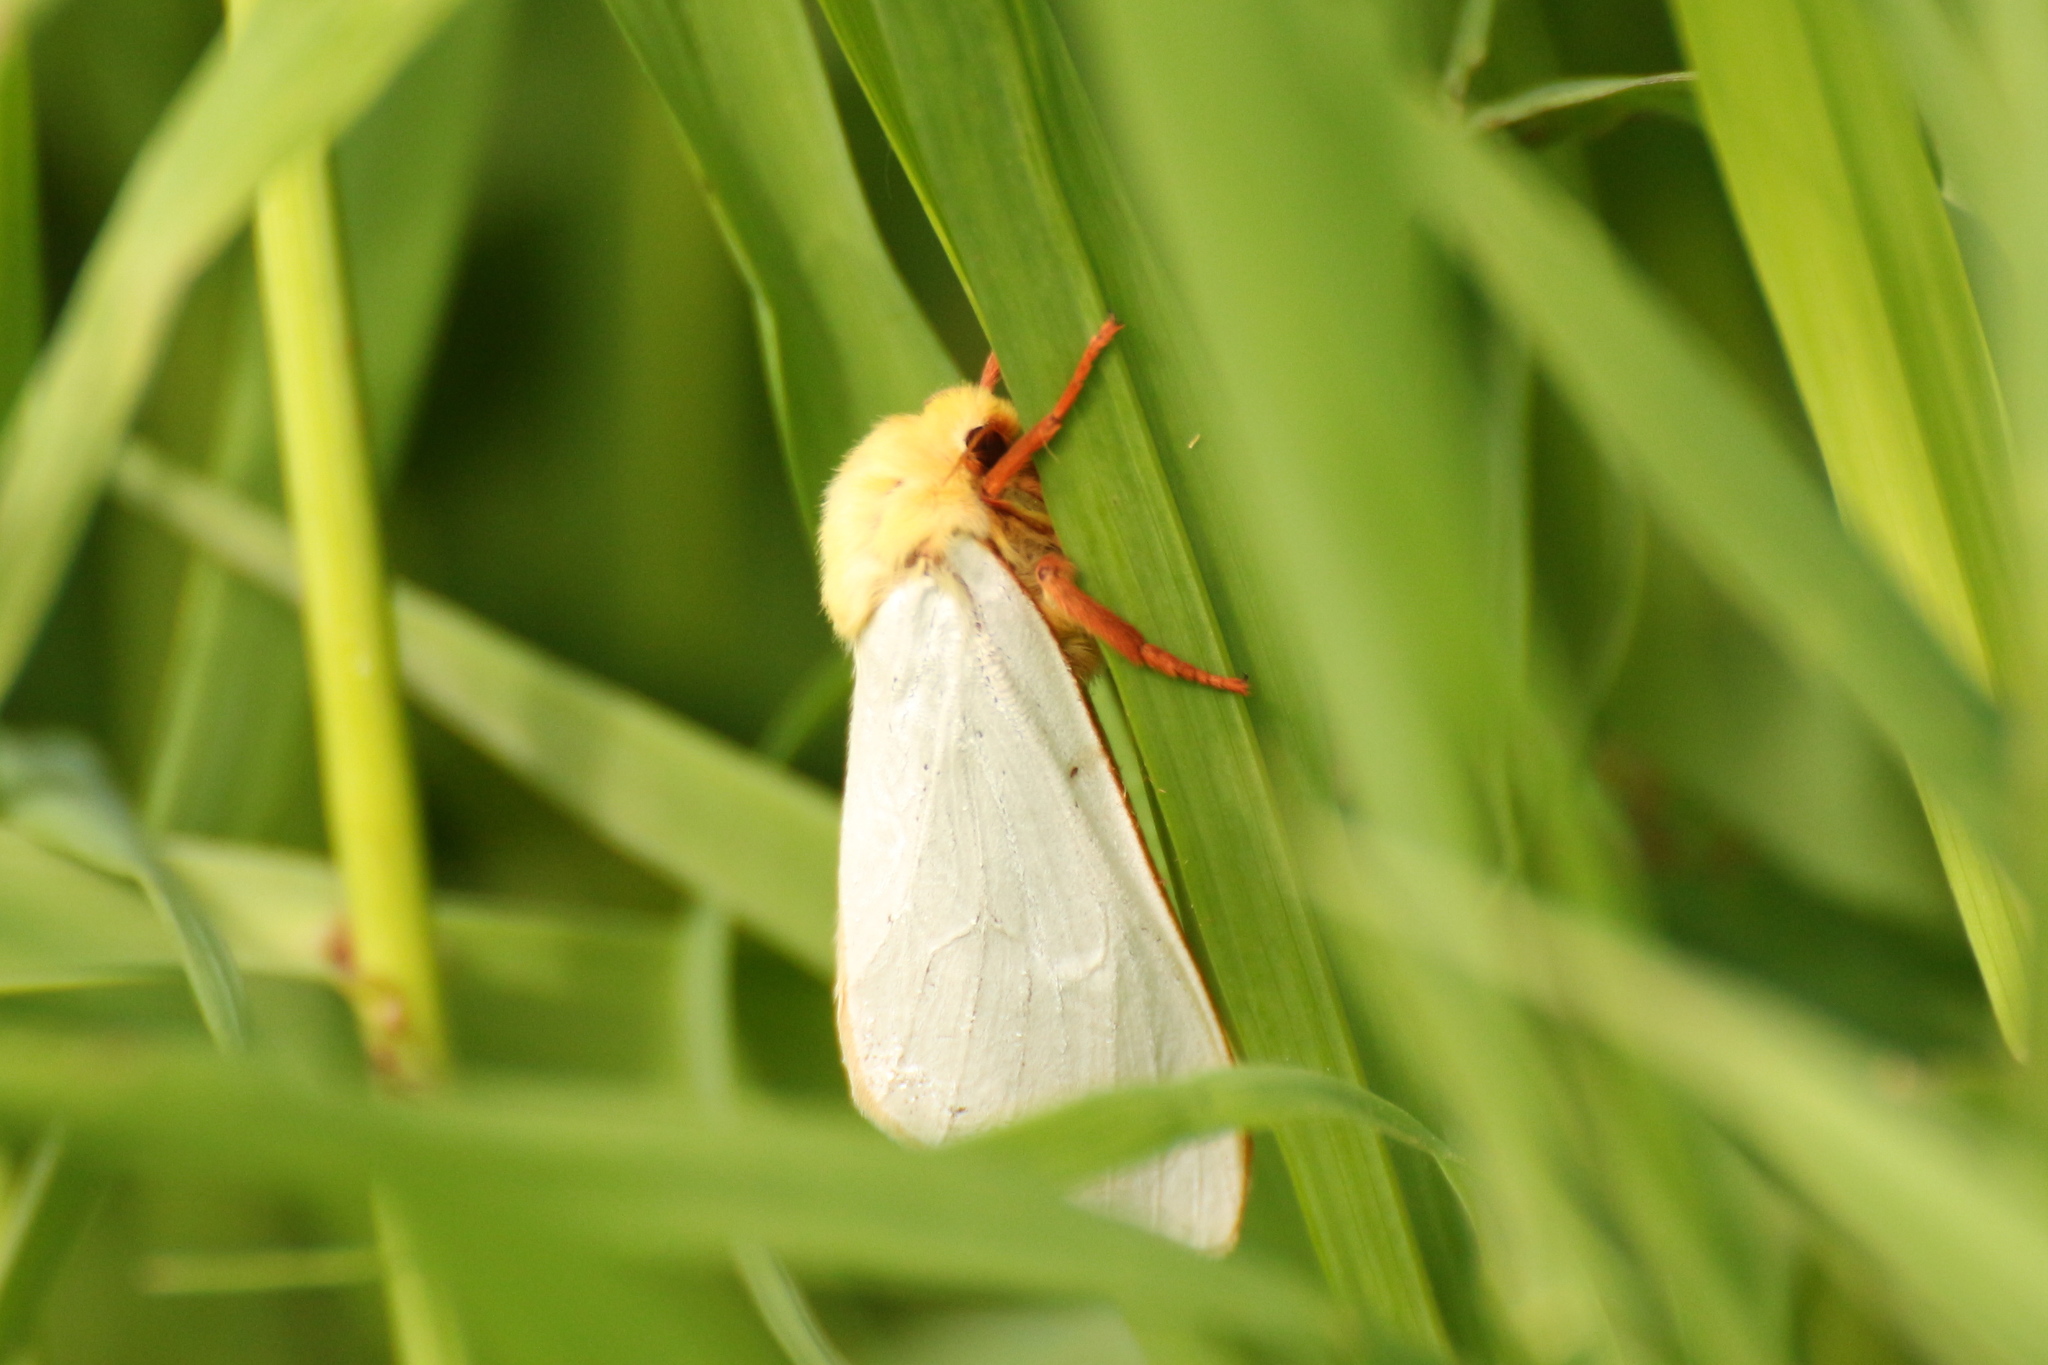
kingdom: Animalia
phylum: Arthropoda
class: Insecta
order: Lepidoptera
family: Hepialidae
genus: Hepialus
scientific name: Hepialus humuli
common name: Ghost moth
